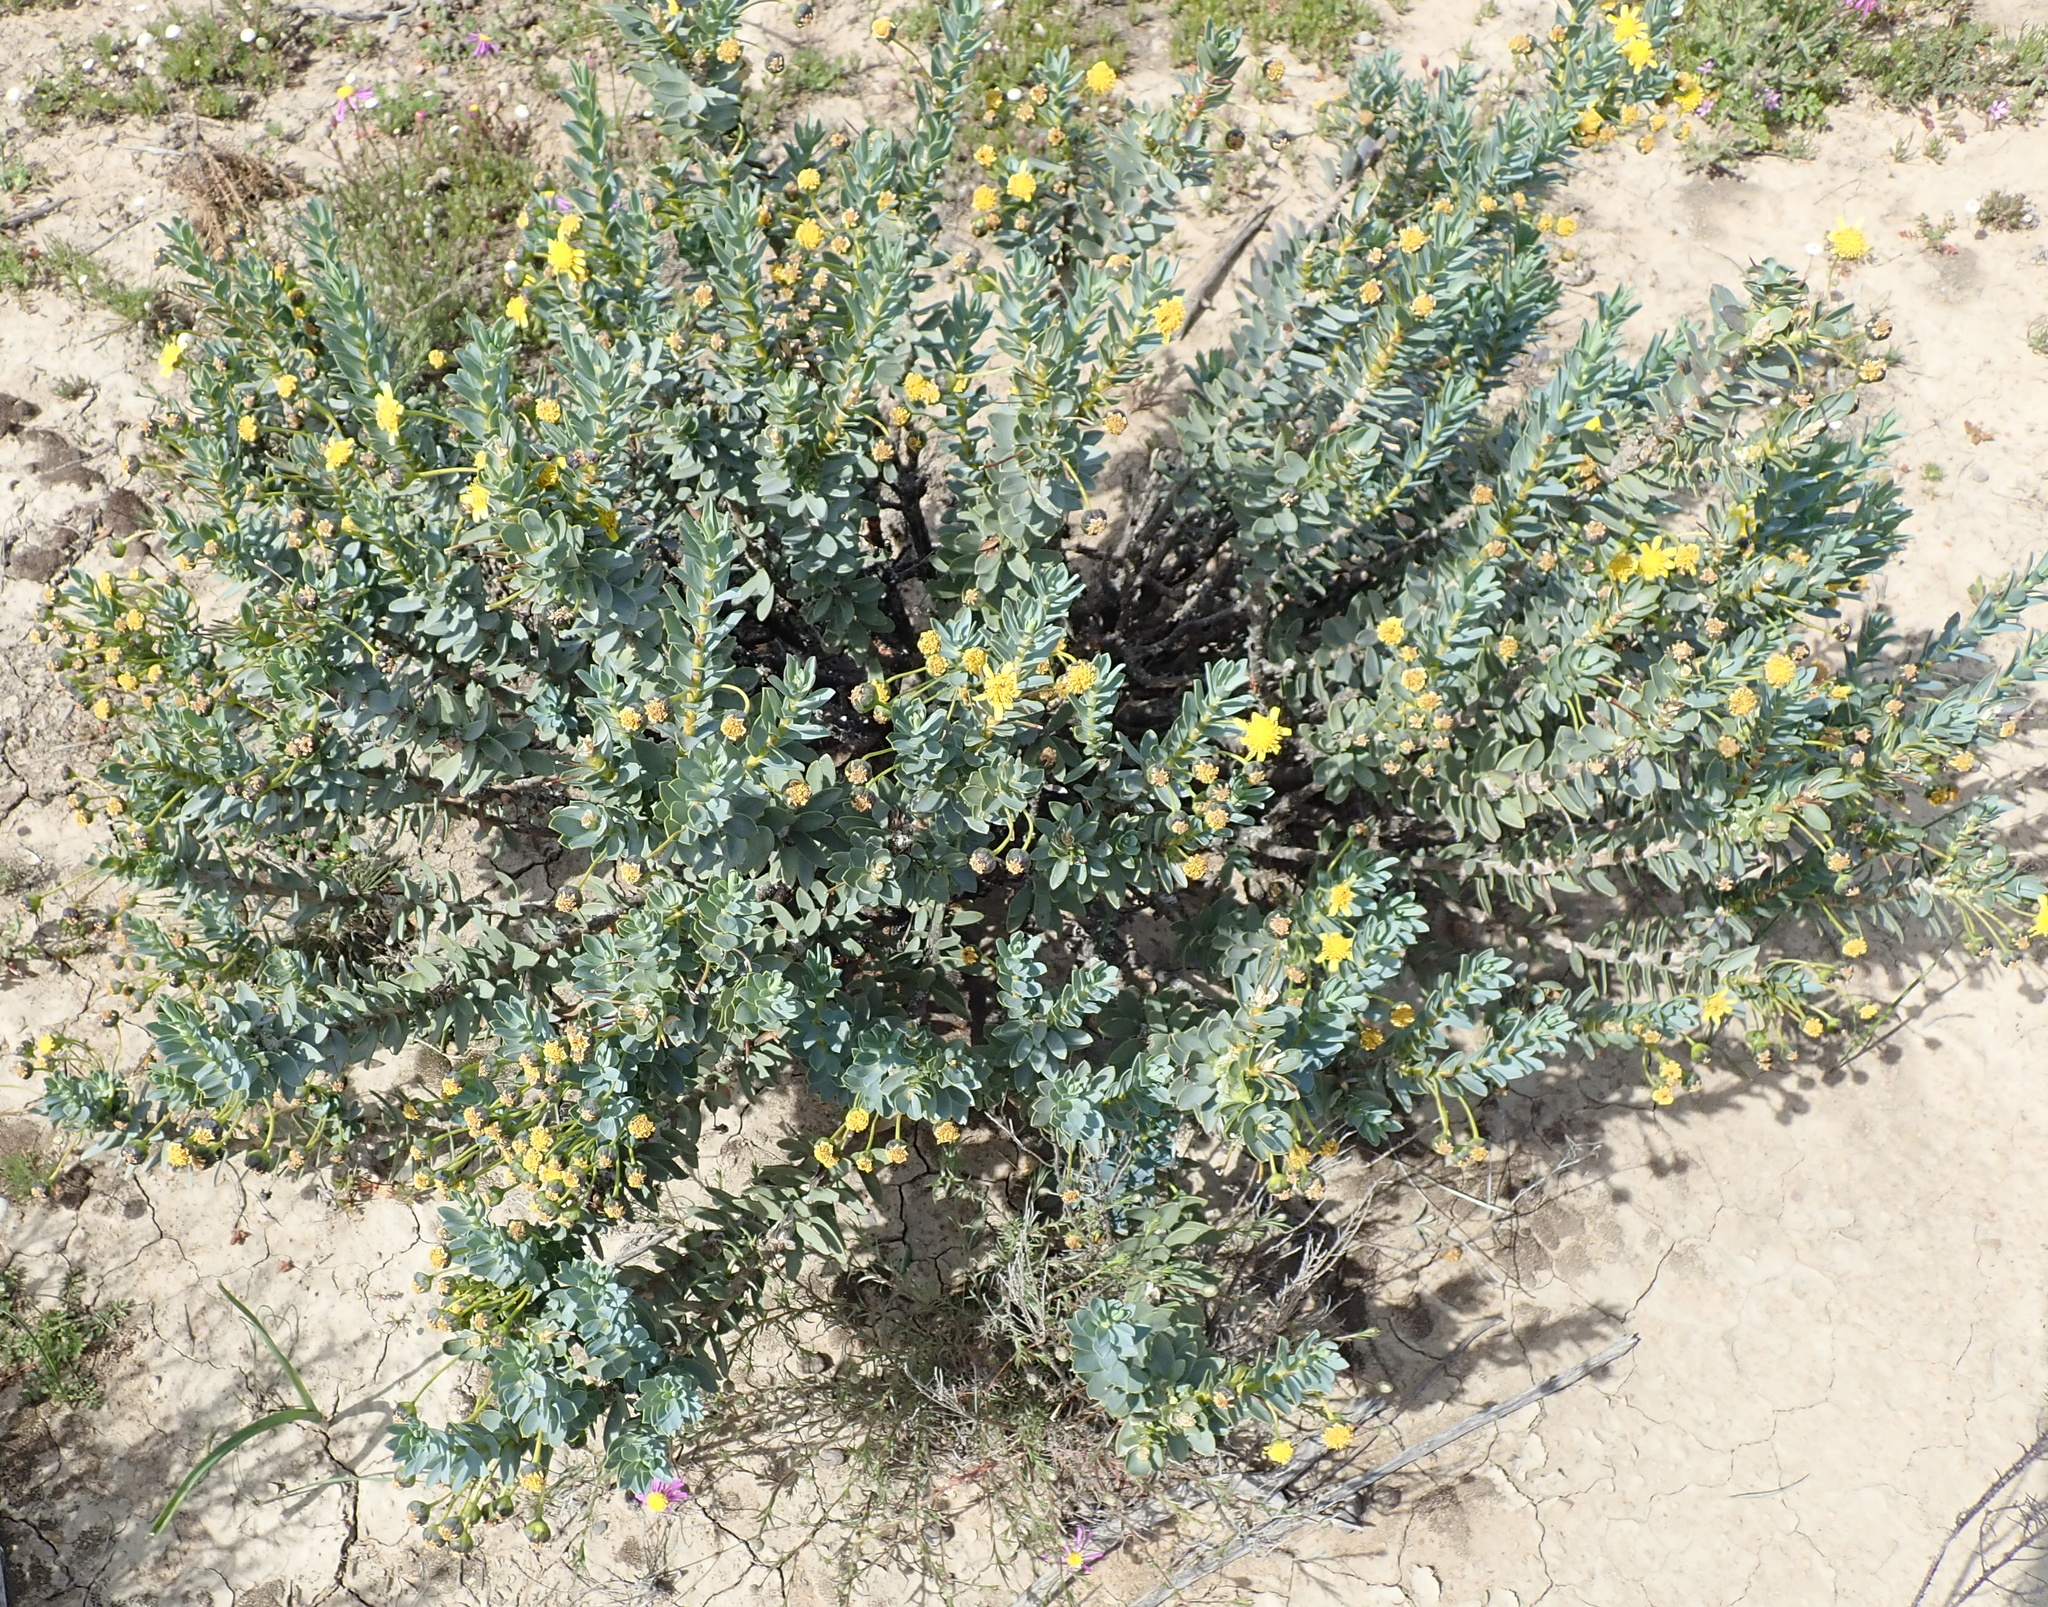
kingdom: Plantae
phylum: Tracheophyta
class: Magnoliopsida
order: Asterales
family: Asteraceae
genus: Euryops
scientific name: Euryops lateriflorus
